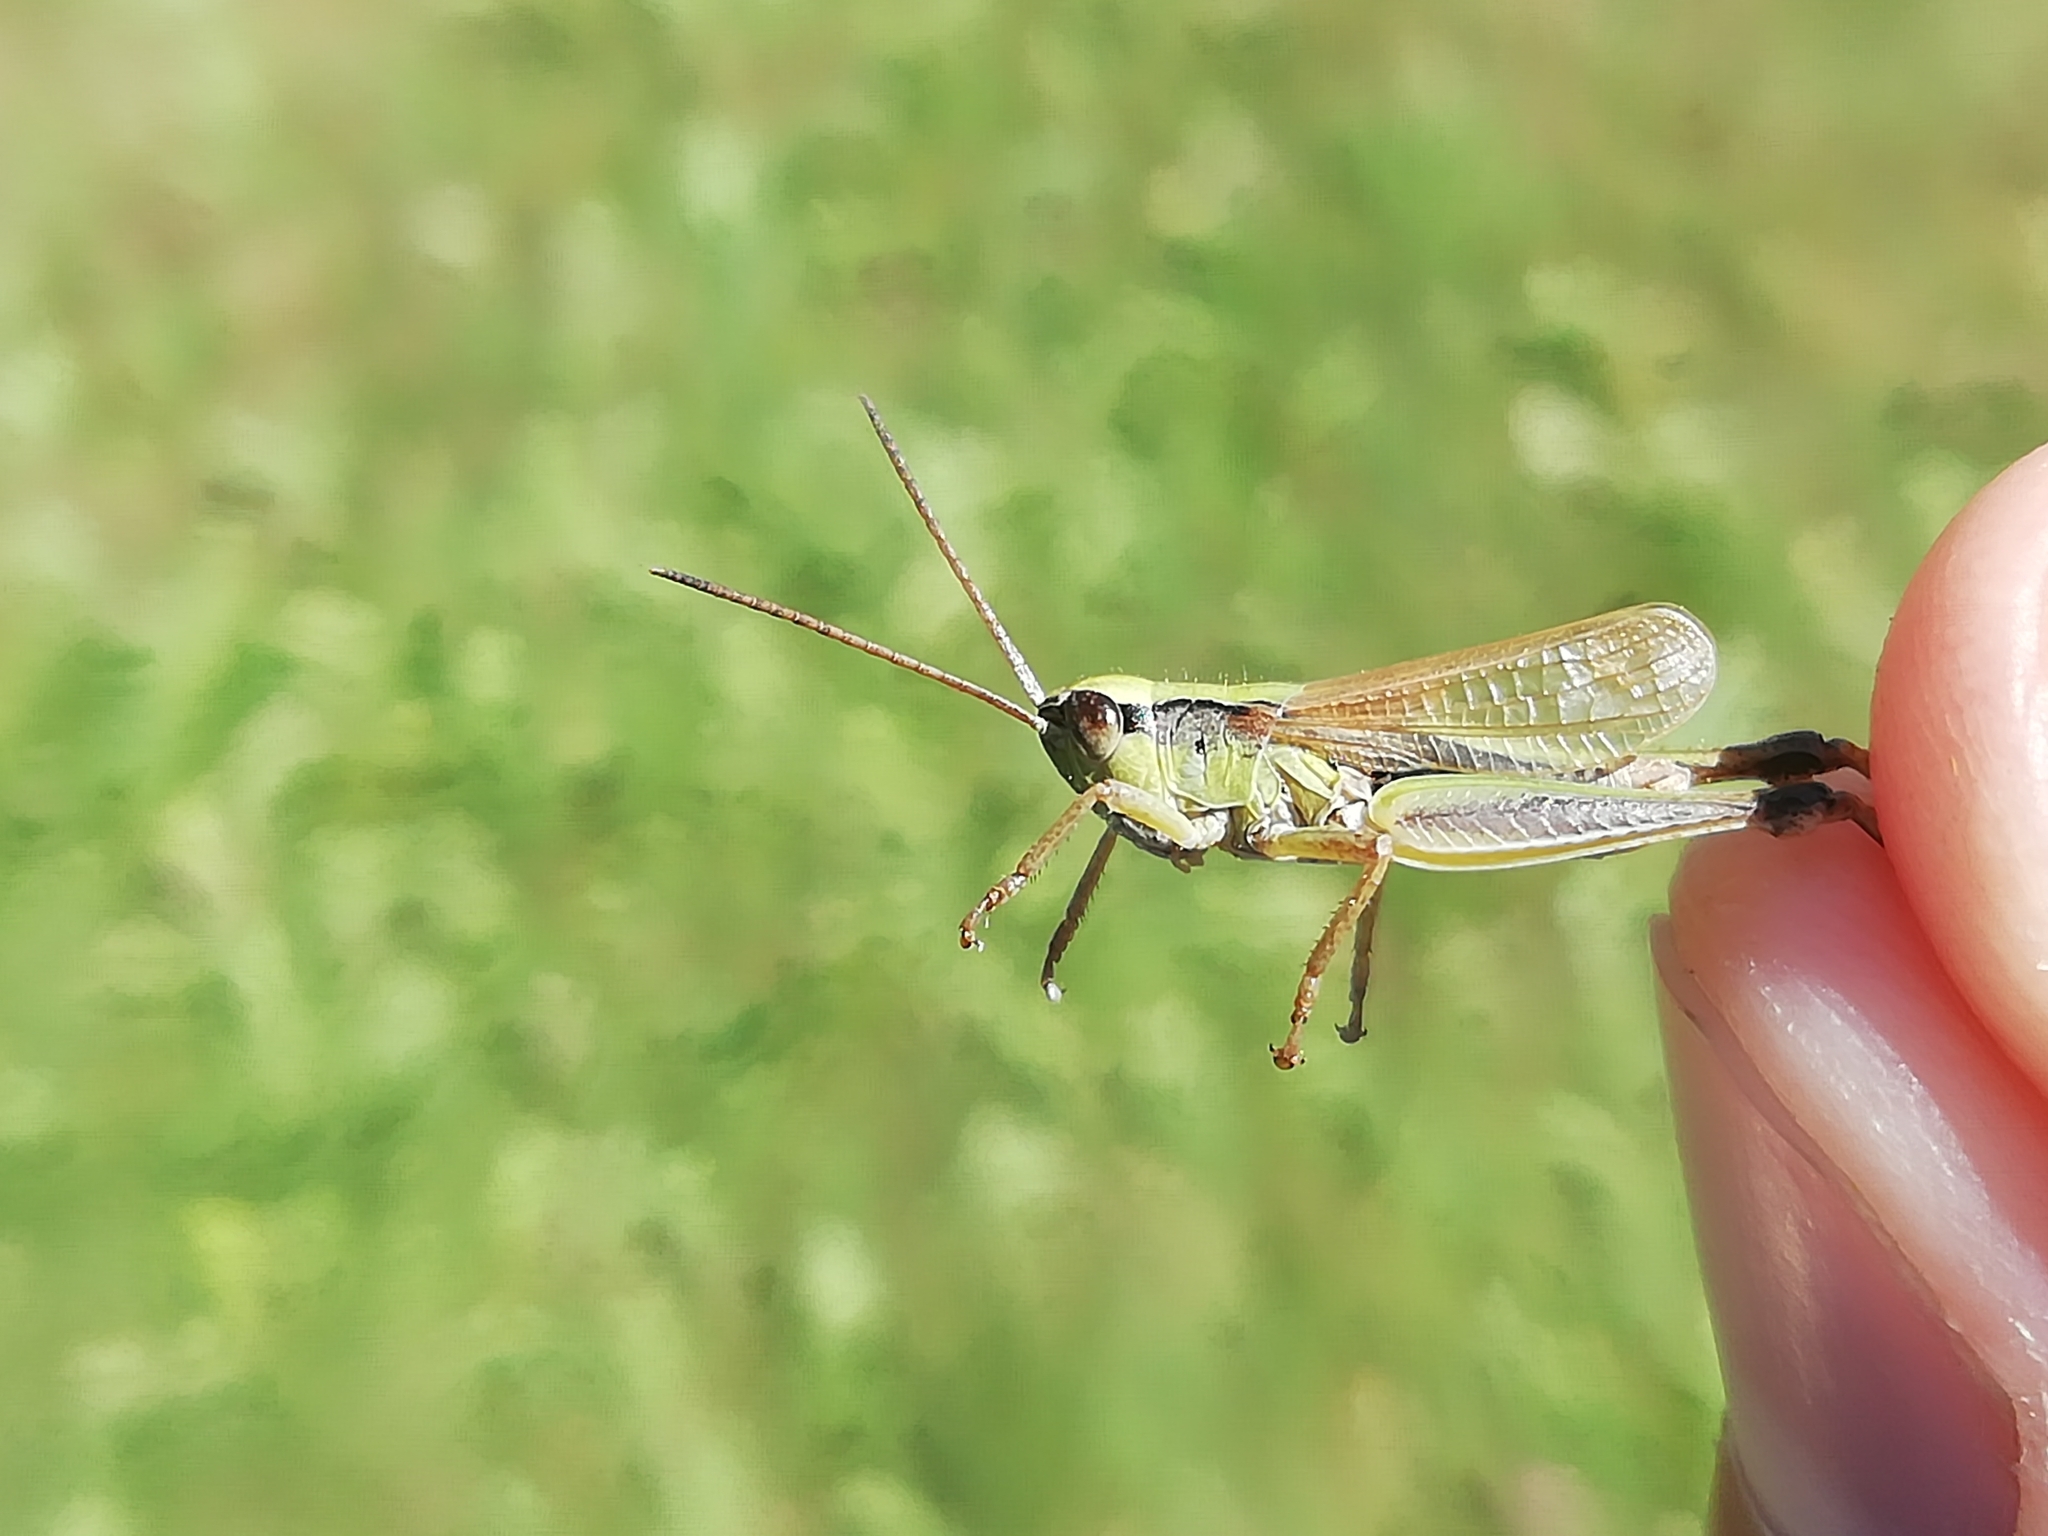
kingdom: Animalia
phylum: Arthropoda
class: Insecta
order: Orthoptera
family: Acrididae
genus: Chorthippus
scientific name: Chorthippus fallax
